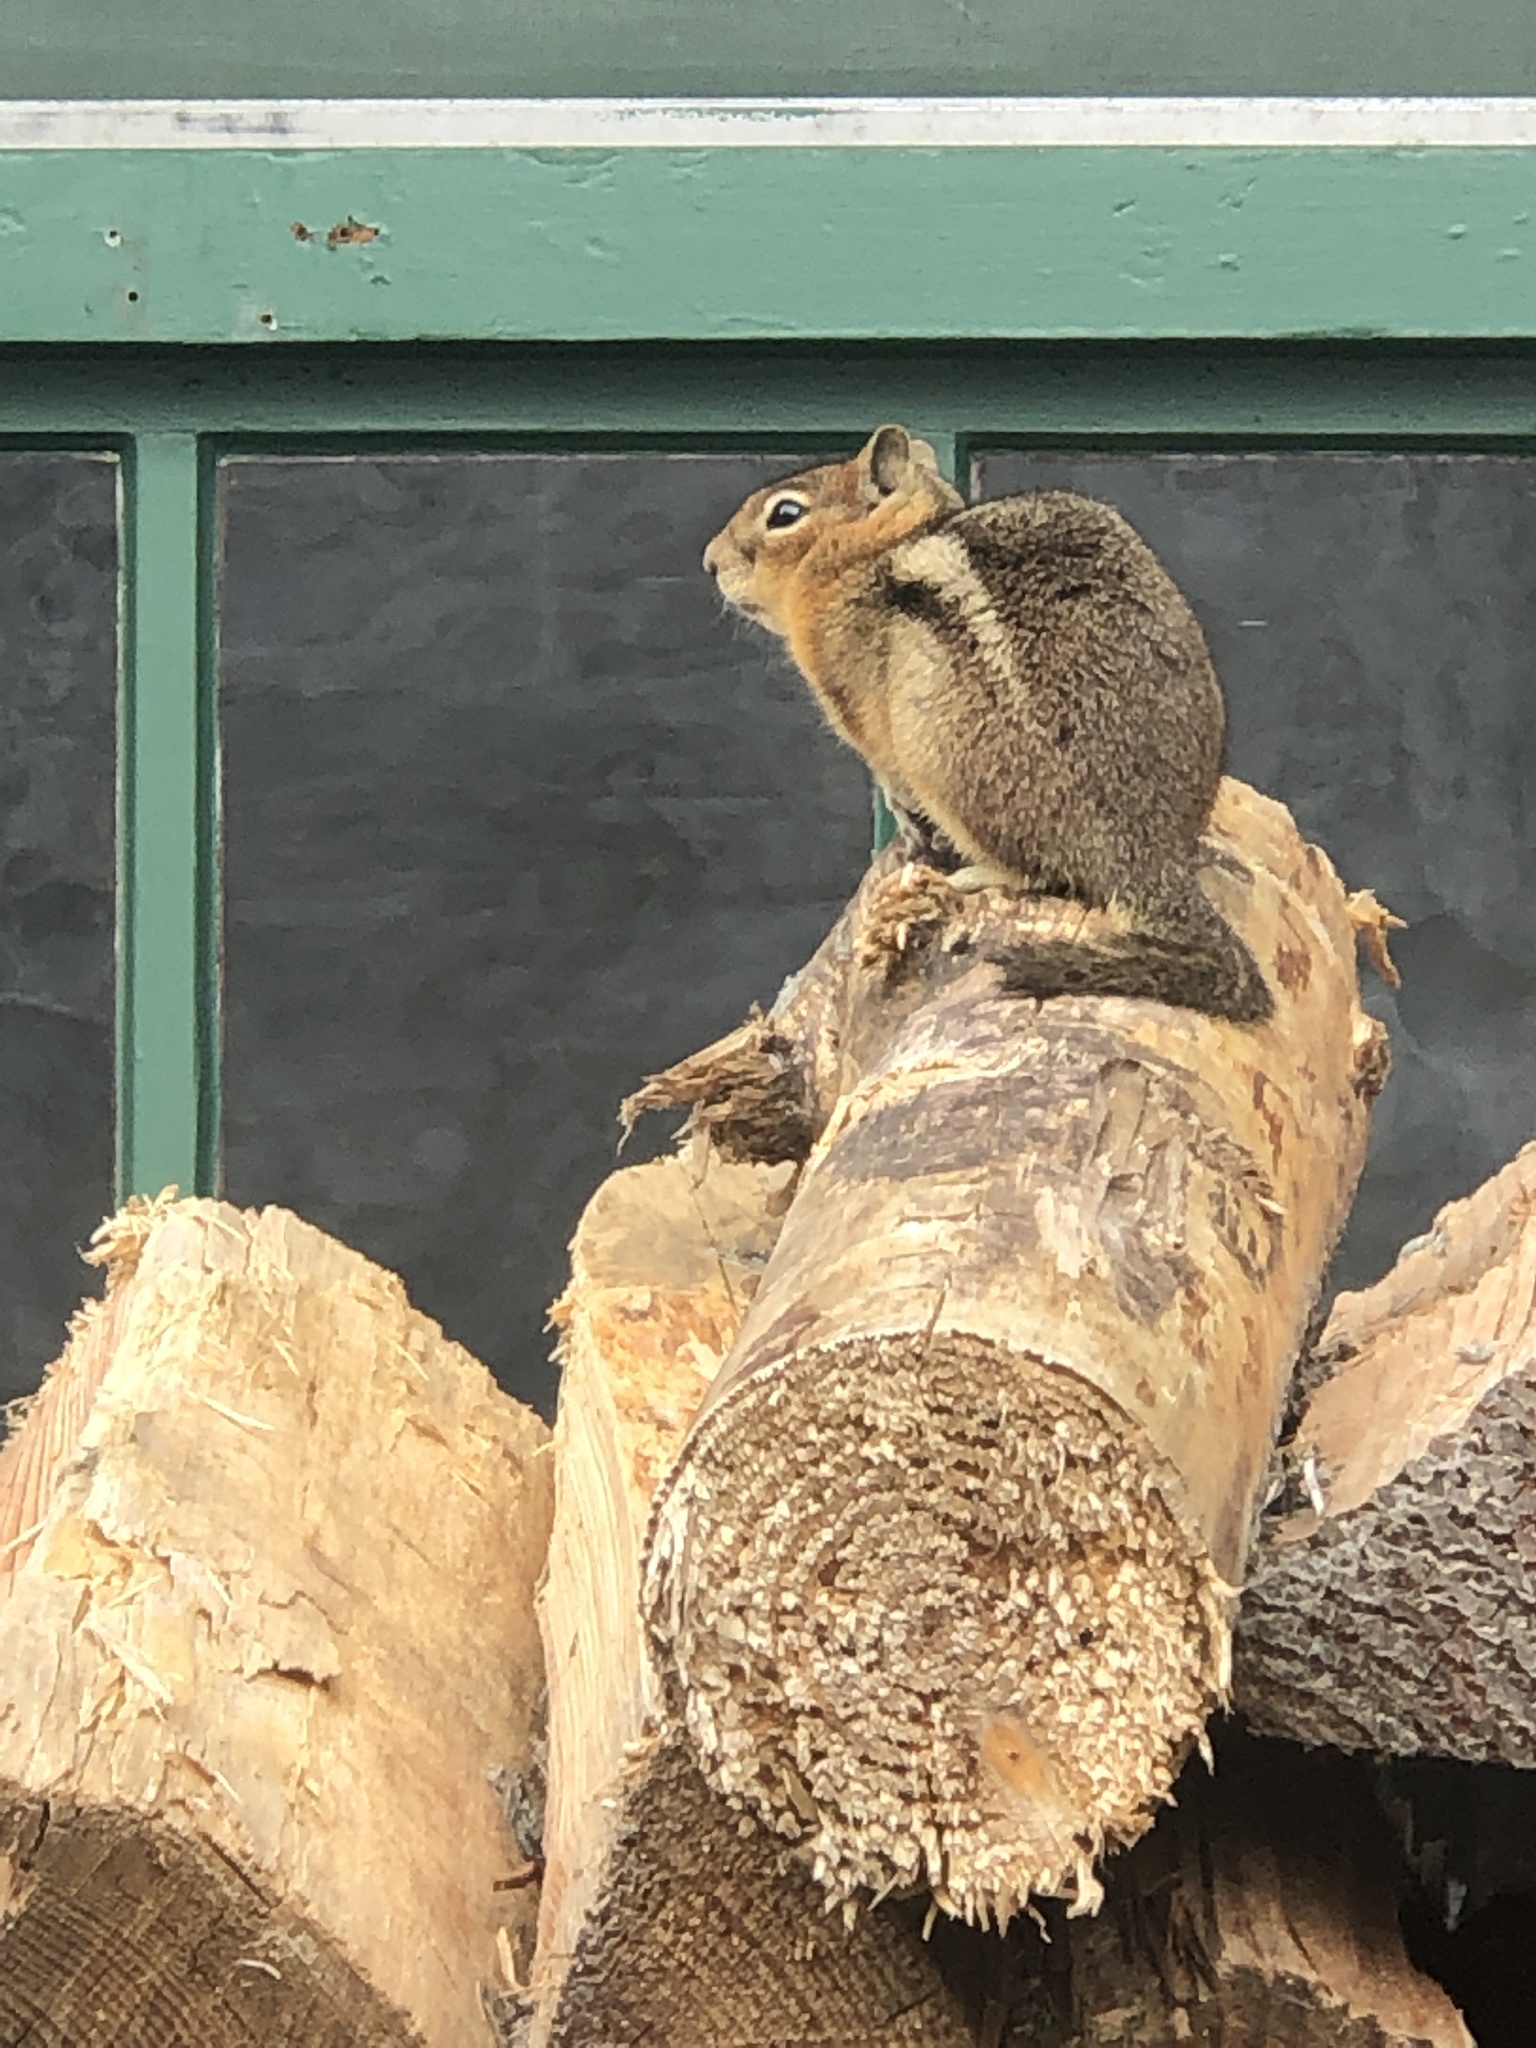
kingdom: Animalia
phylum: Chordata
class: Mammalia
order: Rodentia
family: Sciuridae
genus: Callospermophilus
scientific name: Callospermophilus saturatus
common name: Cascade golden-mantled ground squirrel
